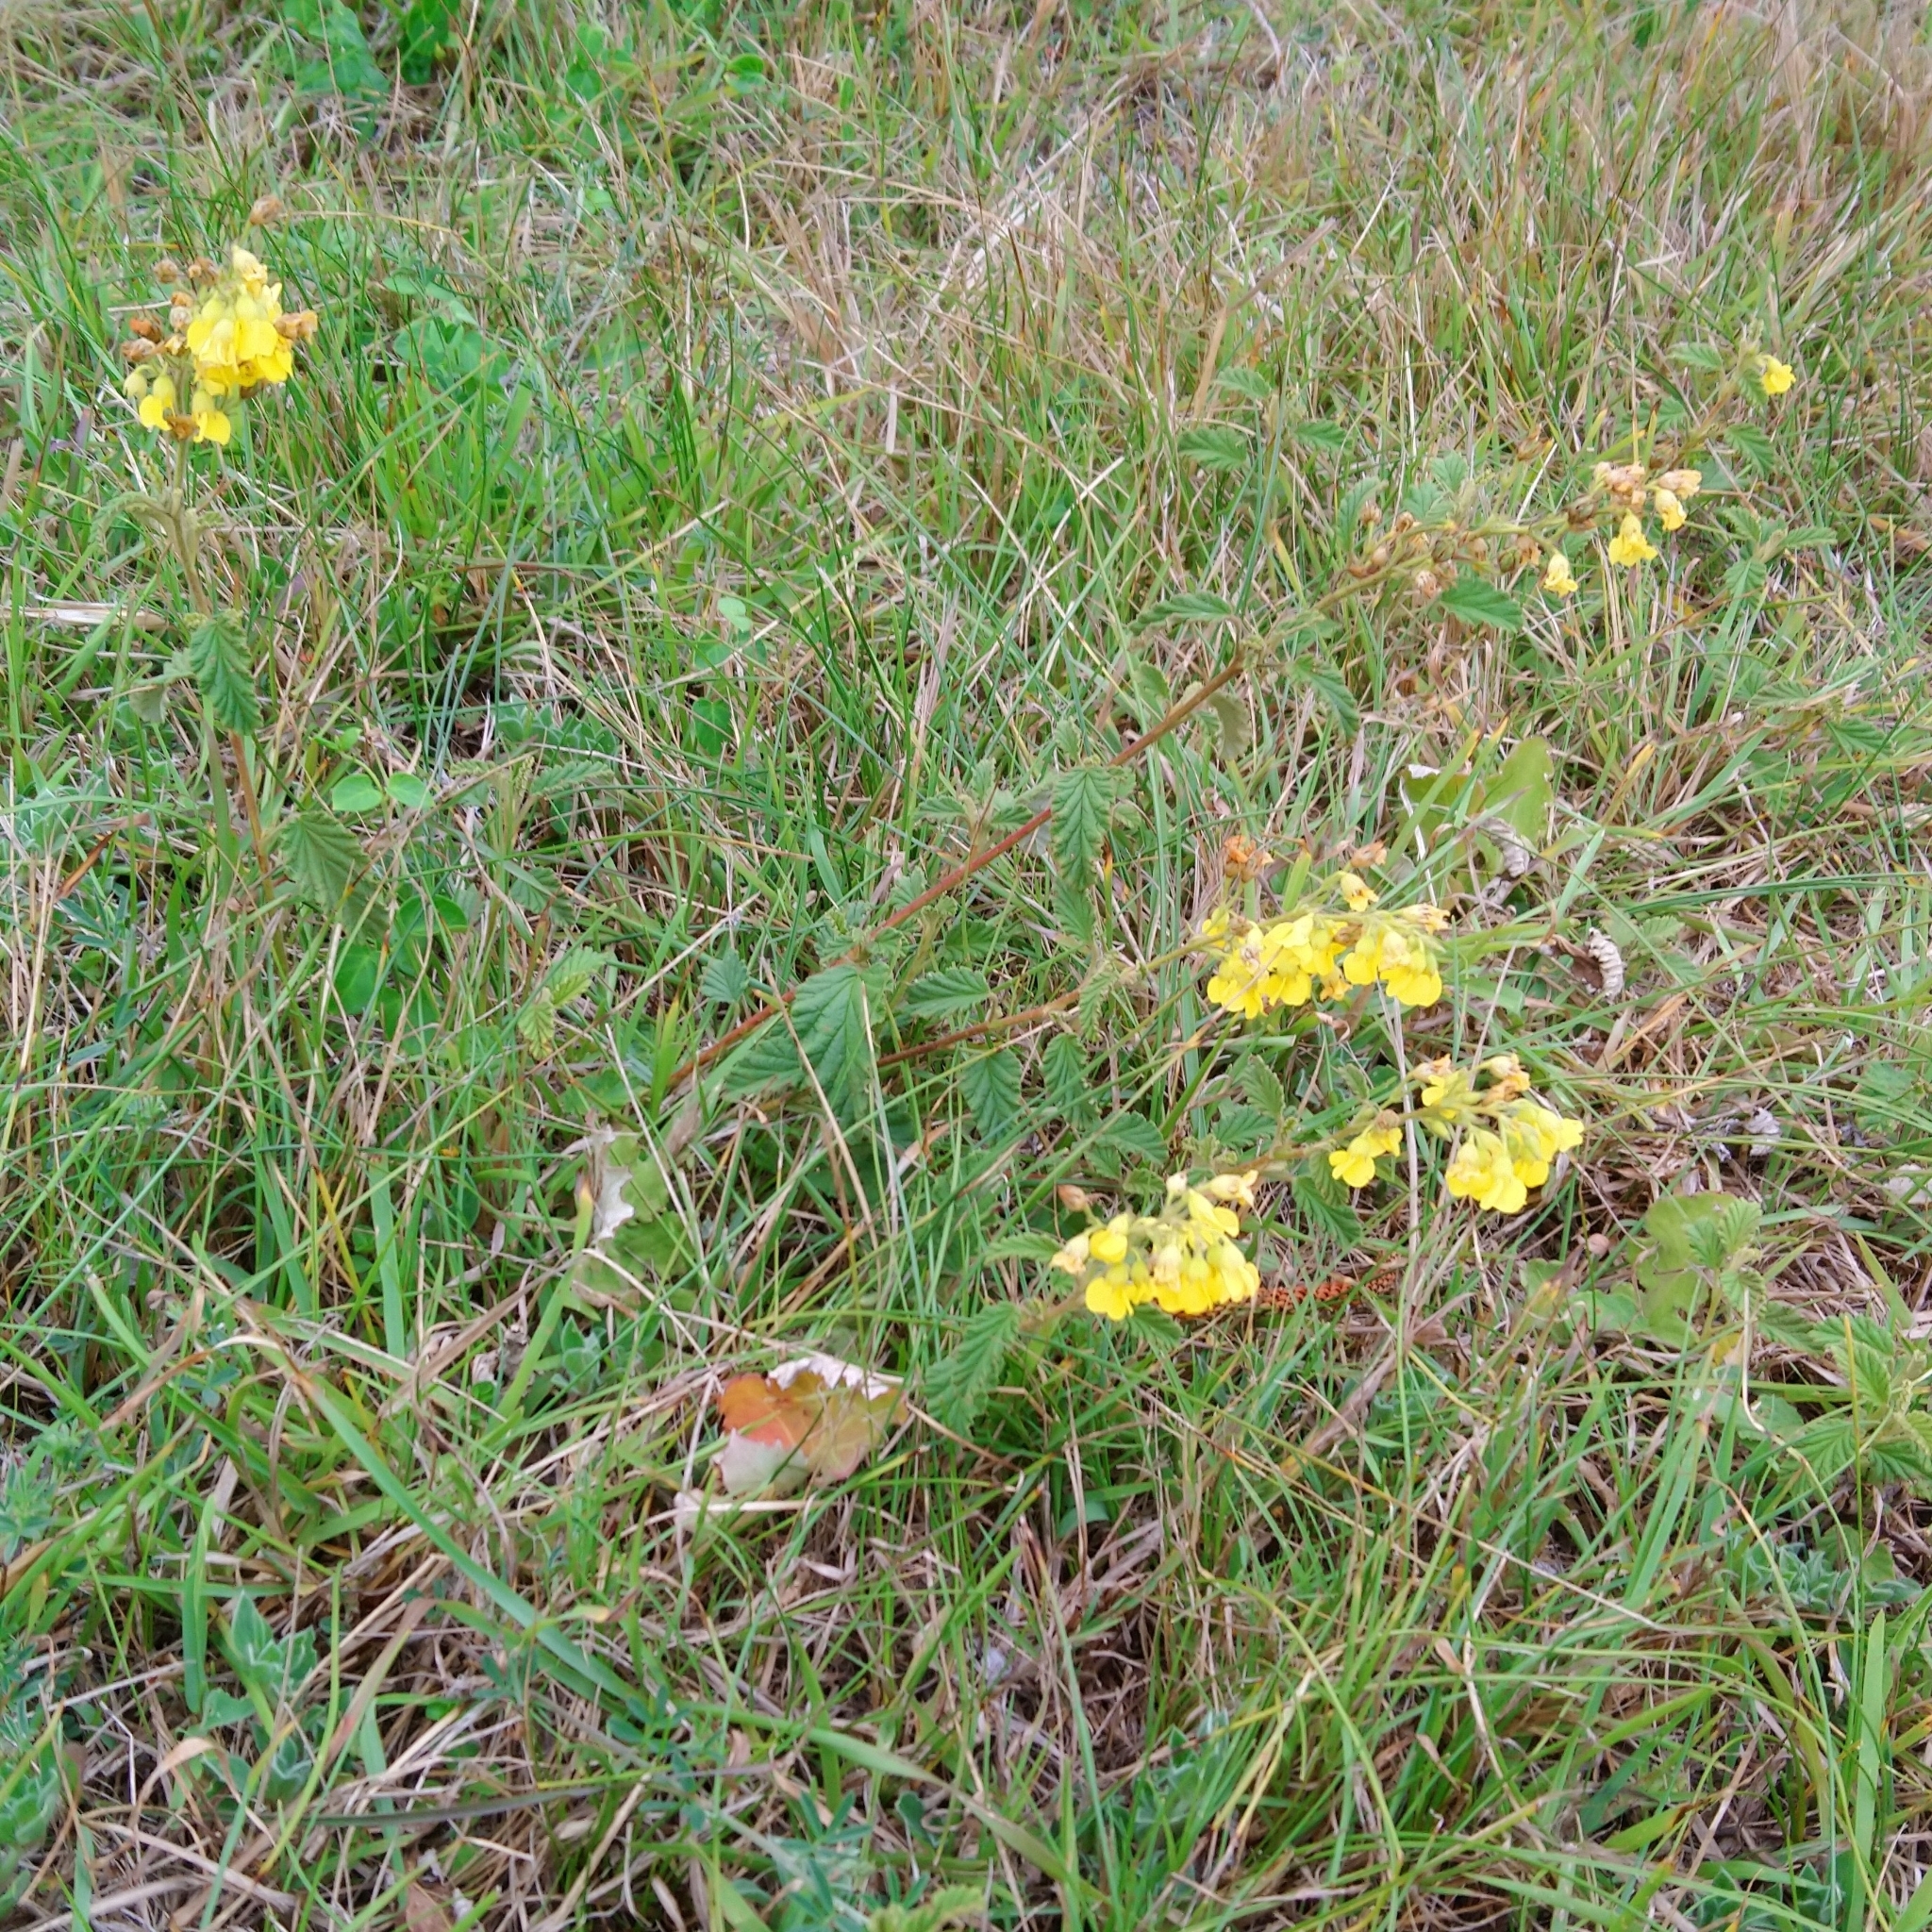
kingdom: Plantae
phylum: Tracheophyta
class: Magnoliopsida
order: Malvales
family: Malvaceae
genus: Hermannia
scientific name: Hermannia althaeoides
